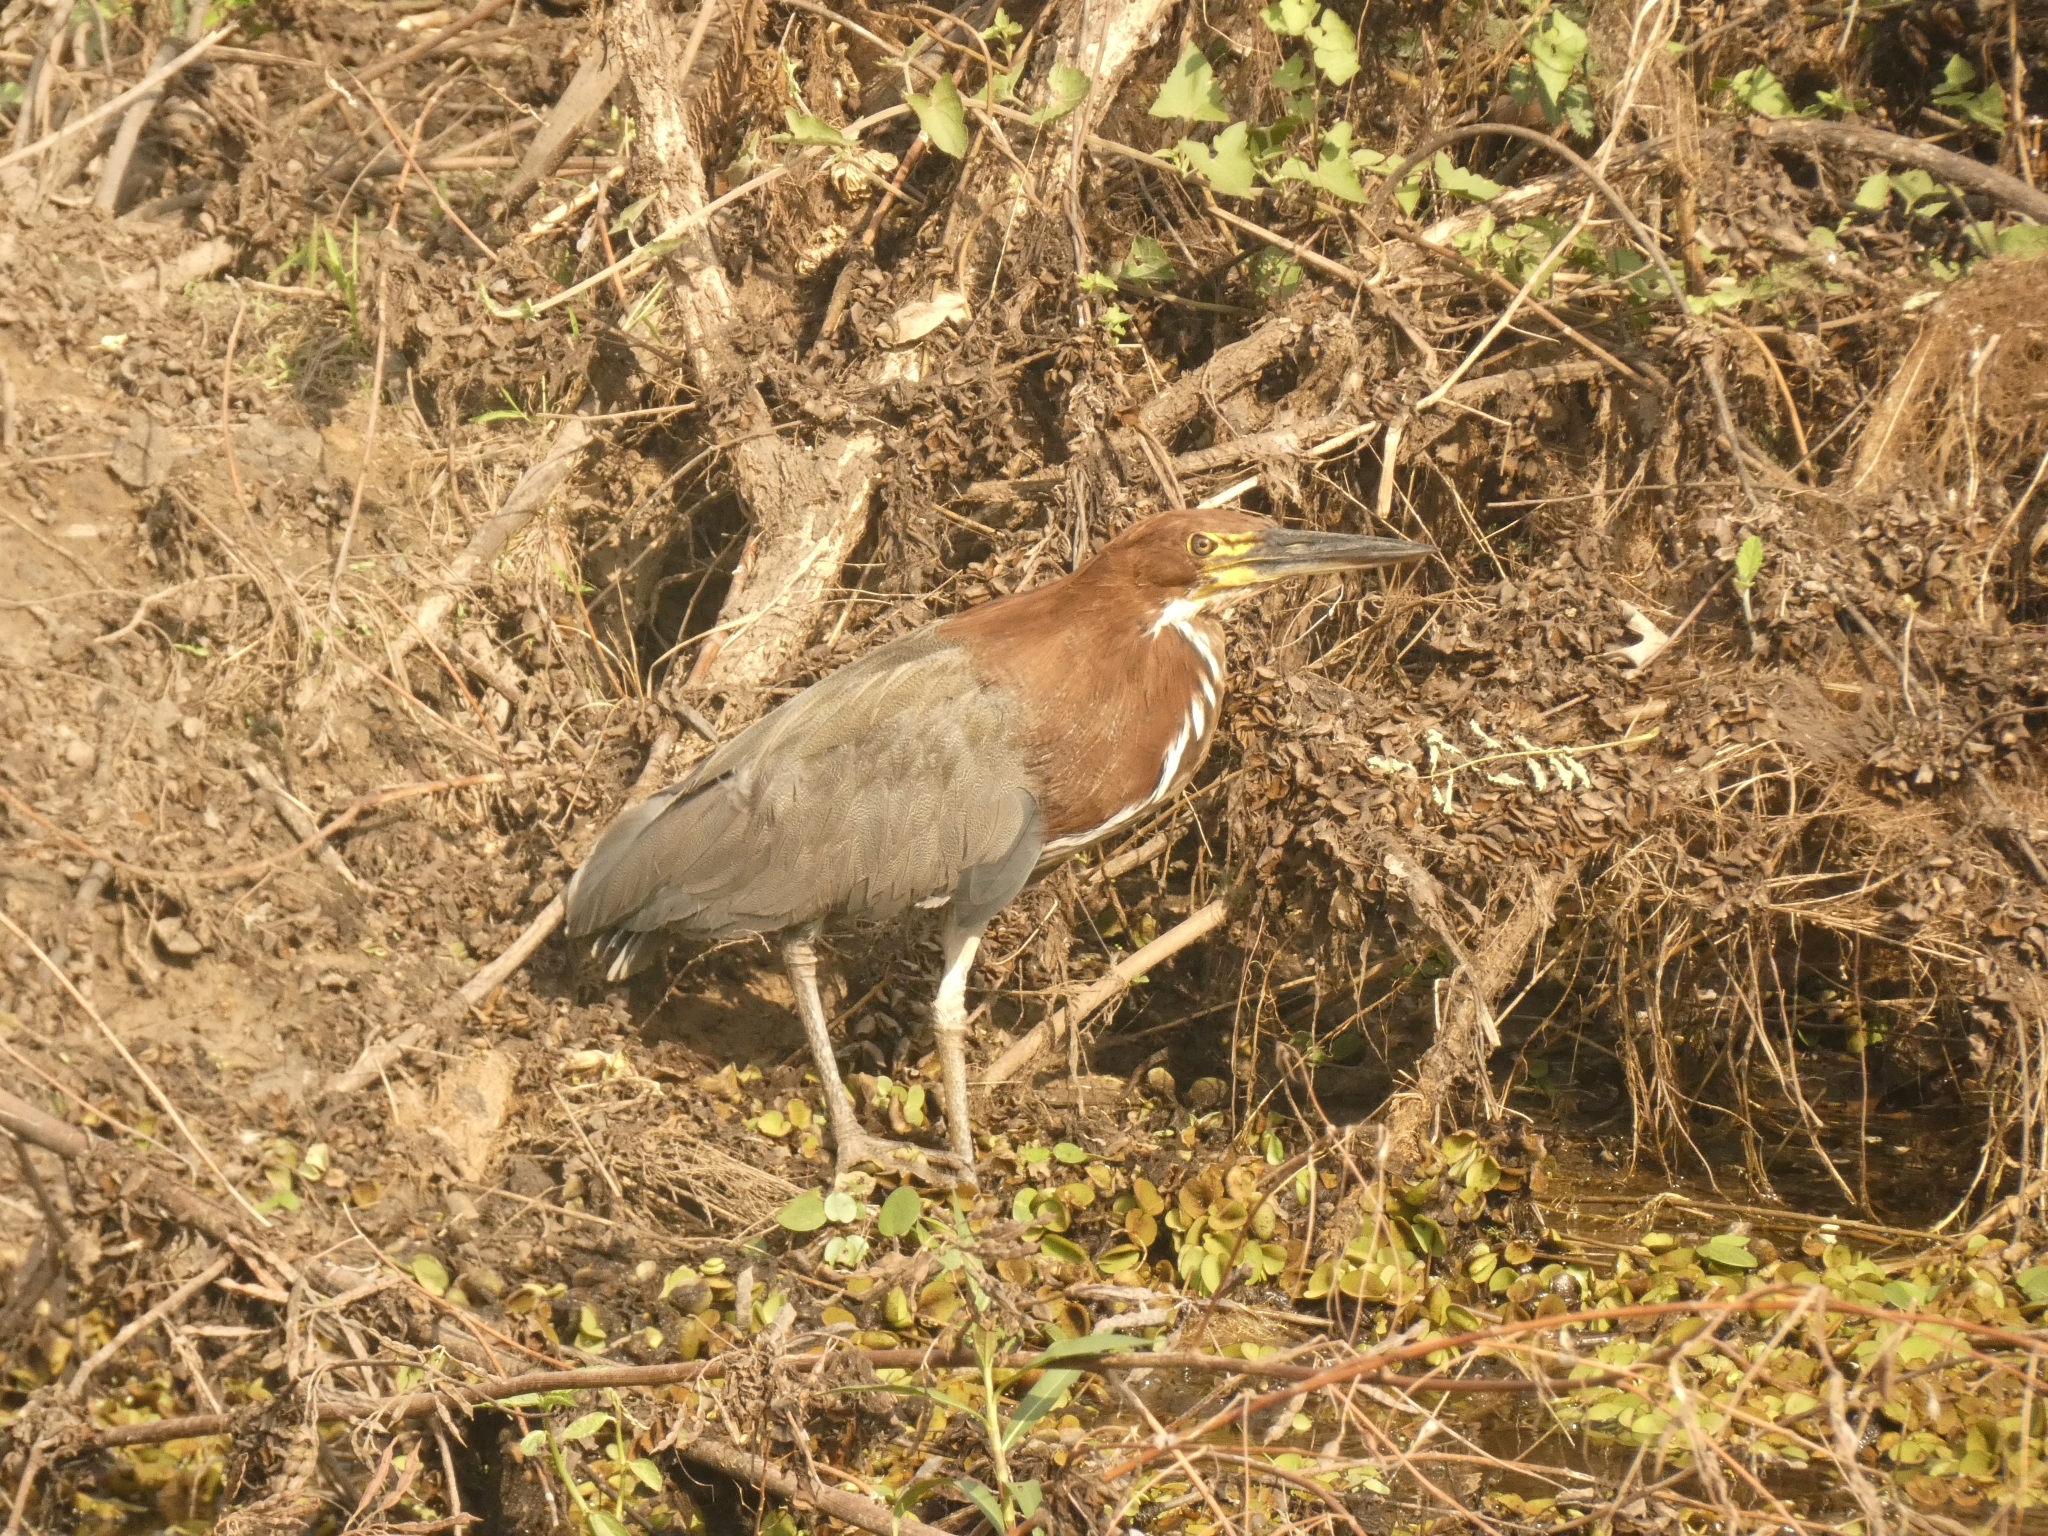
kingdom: Animalia
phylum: Chordata
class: Aves
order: Pelecaniformes
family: Ardeidae
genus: Tigrisoma
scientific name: Tigrisoma lineatum
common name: Rufescent tiger-heron
